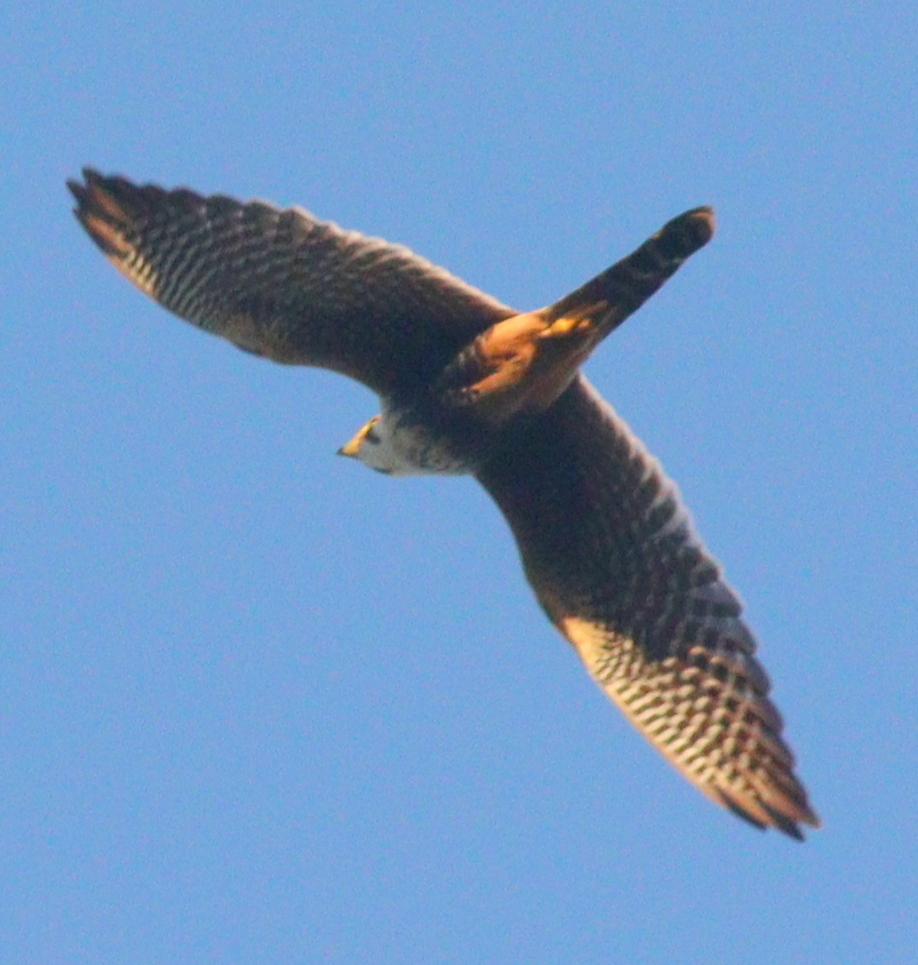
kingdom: Animalia
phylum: Chordata
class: Aves
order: Falconiformes
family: Falconidae
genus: Falco
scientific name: Falco femoralis
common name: Aplomado falcon
